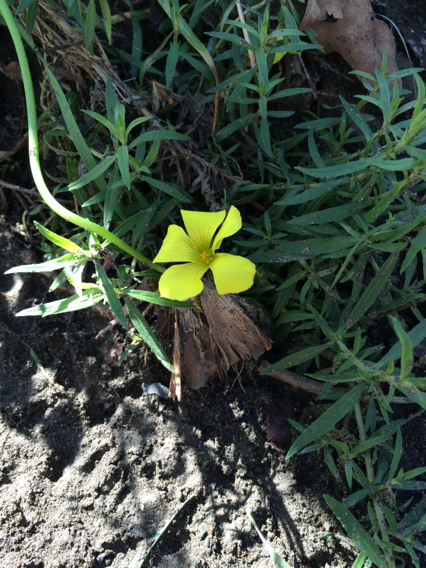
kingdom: Plantae
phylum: Tracheophyta
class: Magnoliopsida
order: Oxalidales
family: Oxalidaceae
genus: Oxalis
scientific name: Oxalis pes-caprae
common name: Bermuda-buttercup
